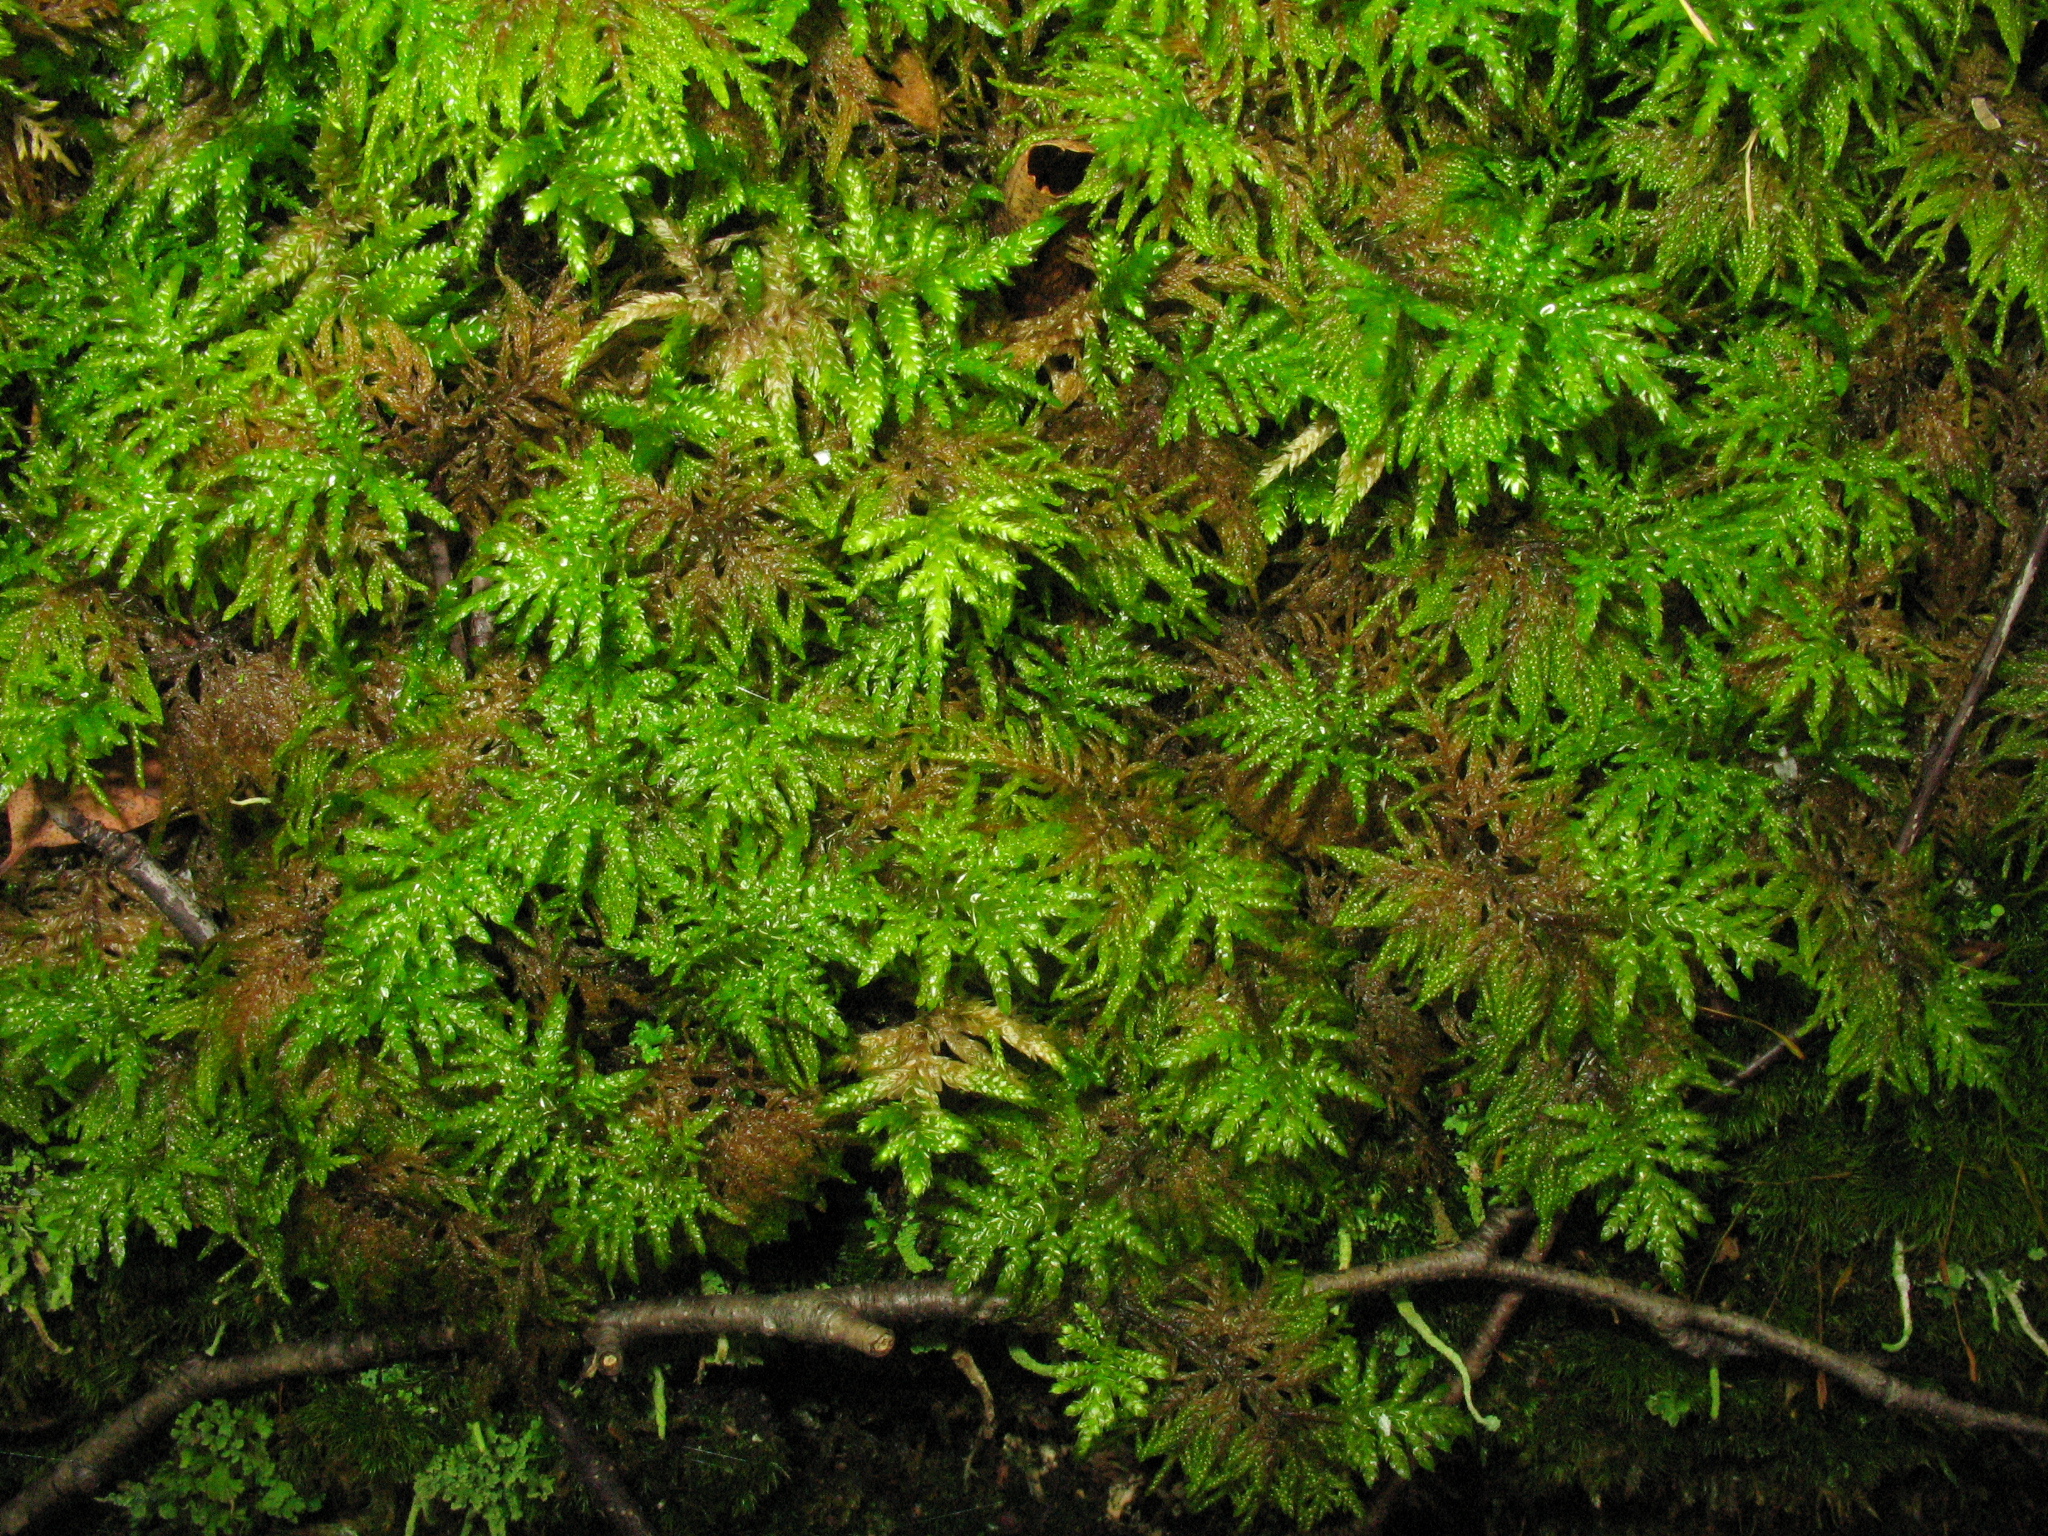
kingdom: Plantae
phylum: Bryophyta
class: Bryopsida
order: Hypnales
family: Hylocomiaceae
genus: Hylocomium
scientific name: Hylocomium splendens
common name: Stairstep moss
